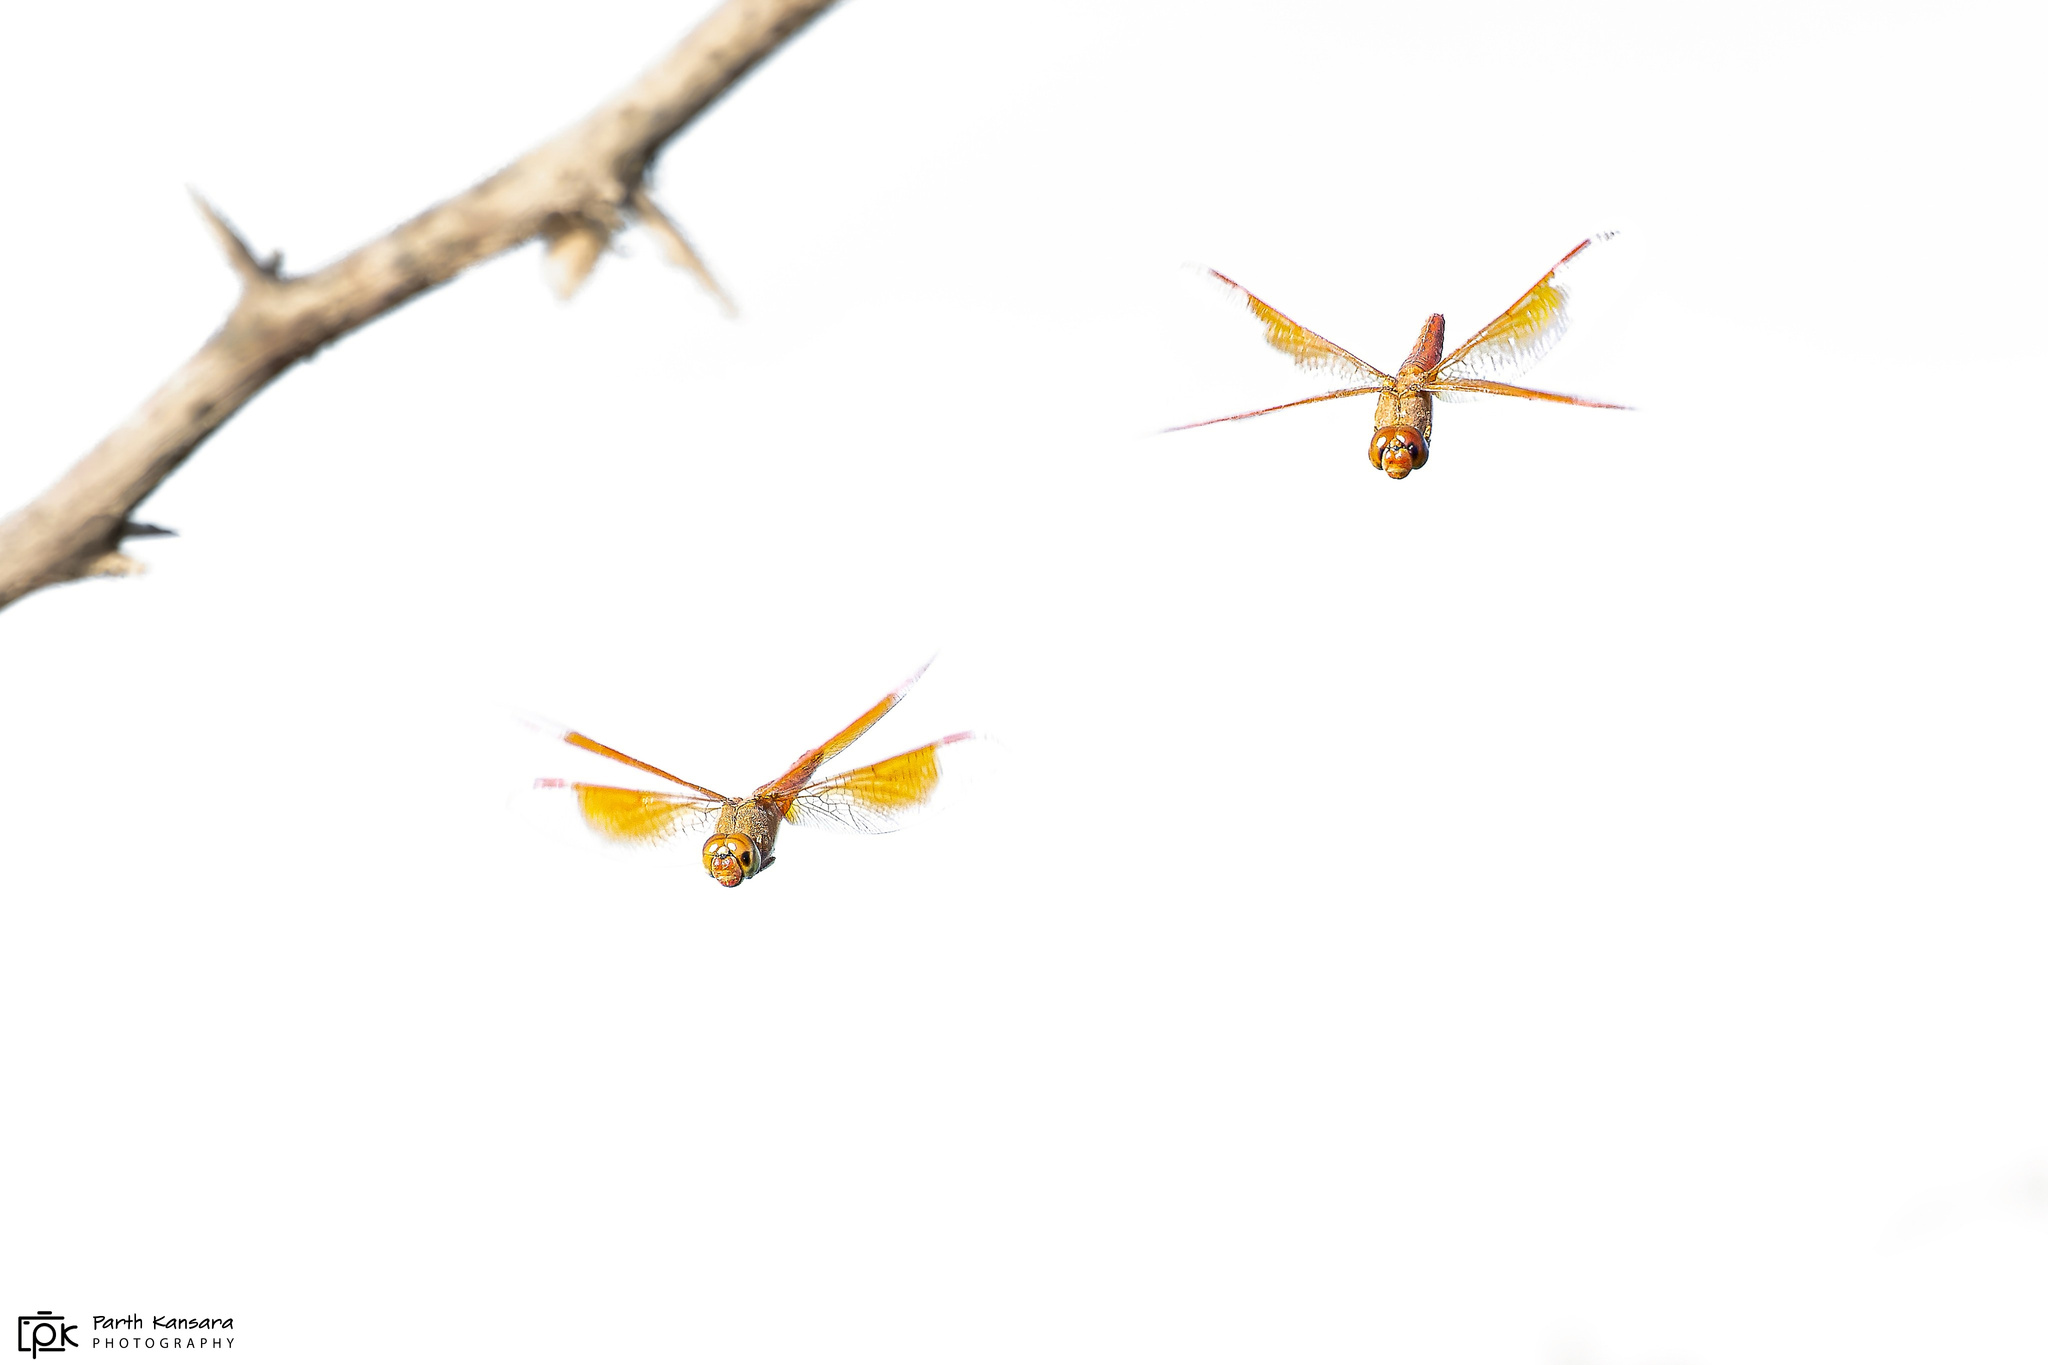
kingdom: Animalia
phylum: Arthropoda
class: Insecta
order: Odonata
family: Libellulidae
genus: Brachythemis
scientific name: Brachythemis contaminata
